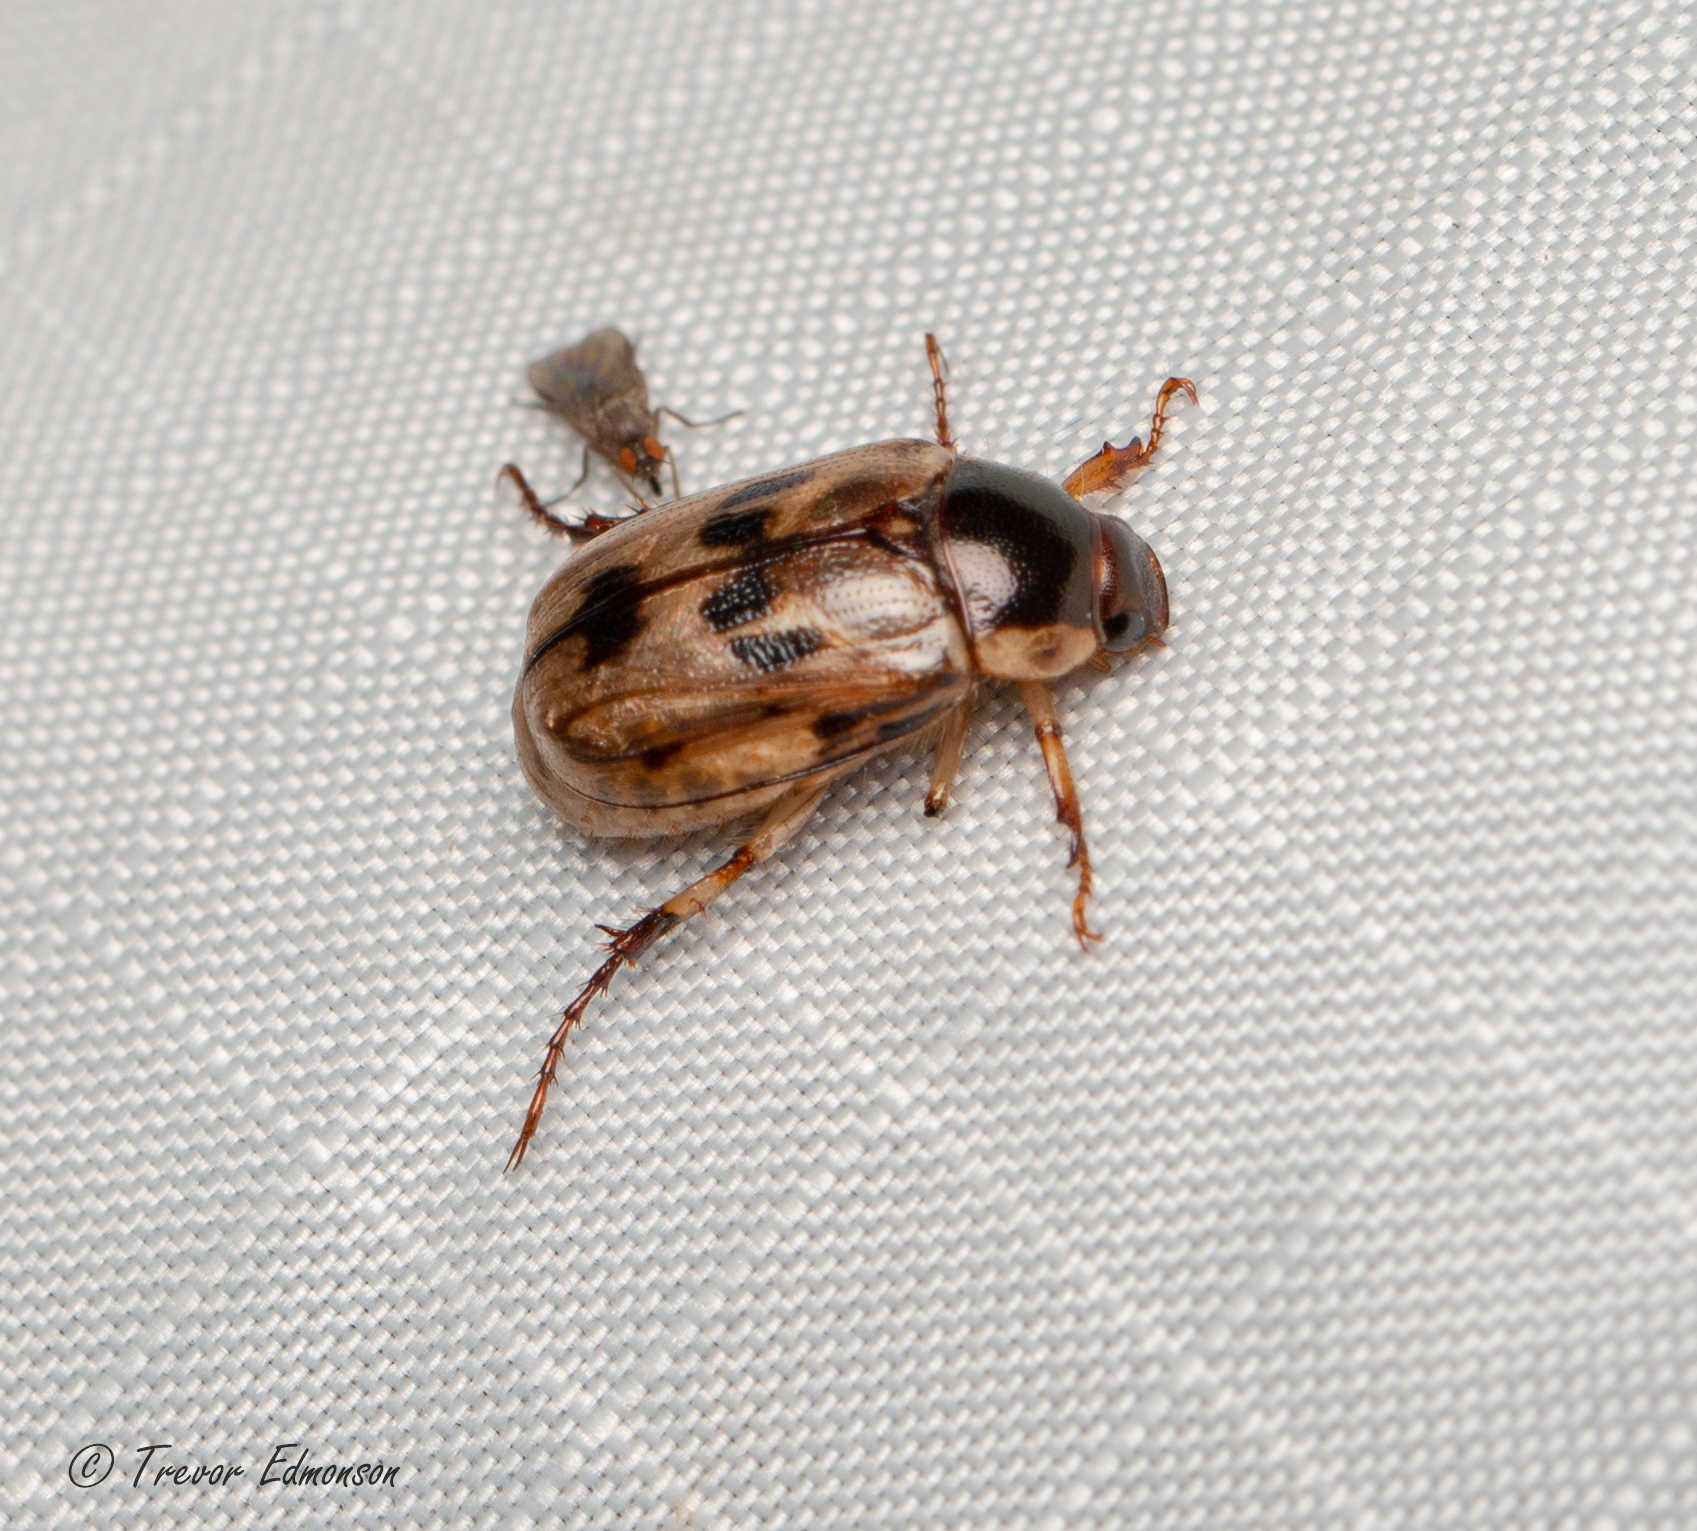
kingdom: Animalia
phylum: Arthropoda
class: Insecta
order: Coleoptera
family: Scarabaeidae
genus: Exomala
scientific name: Exomala orientalis
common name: Oriental beetle
